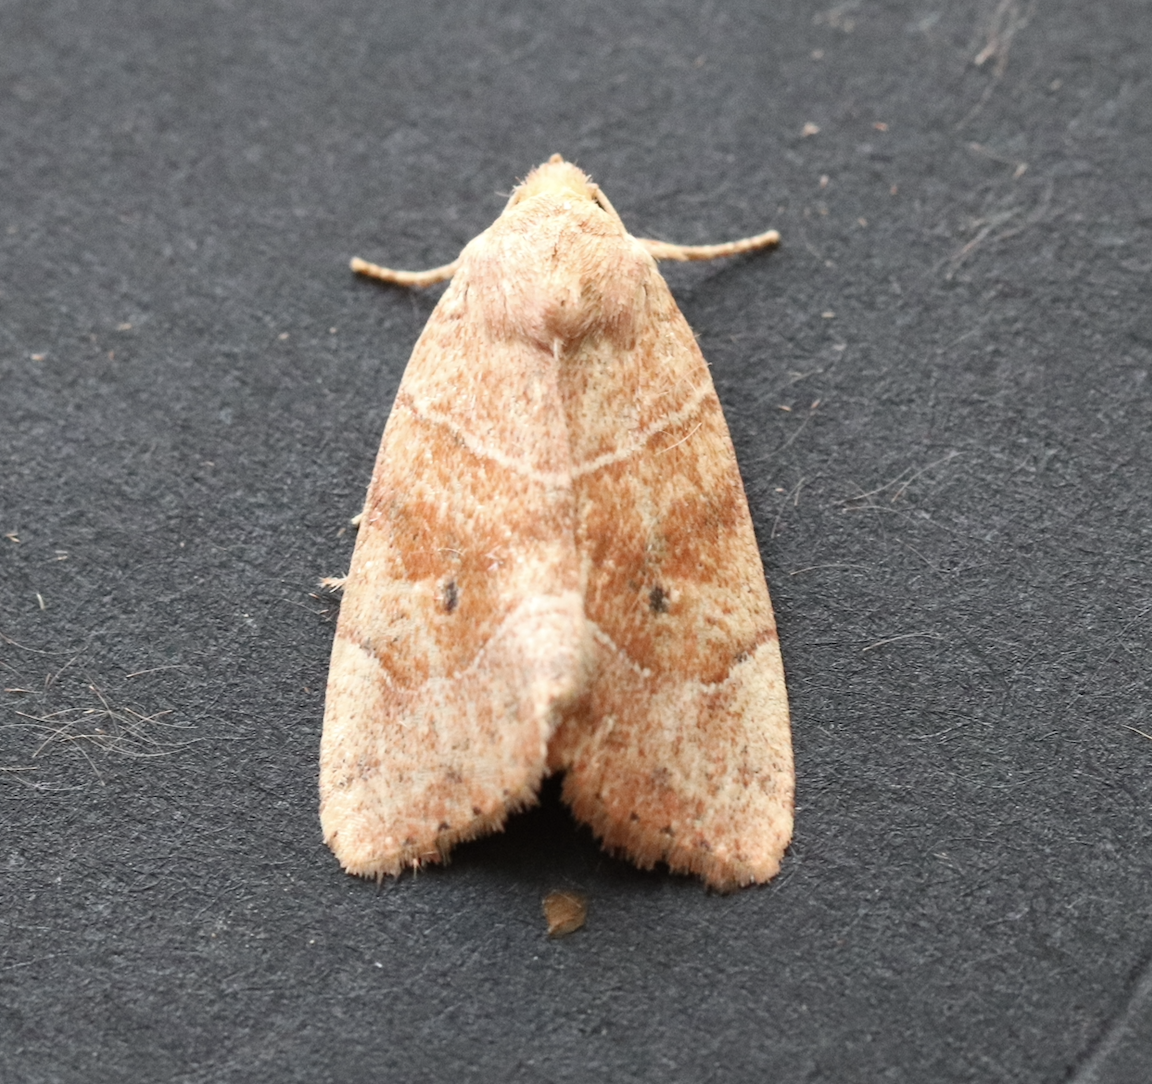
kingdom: Animalia
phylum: Arthropoda
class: Insecta
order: Lepidoptera
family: Noctuidae
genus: Cosmia
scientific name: Cosmia trapezina
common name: Dun-bar
